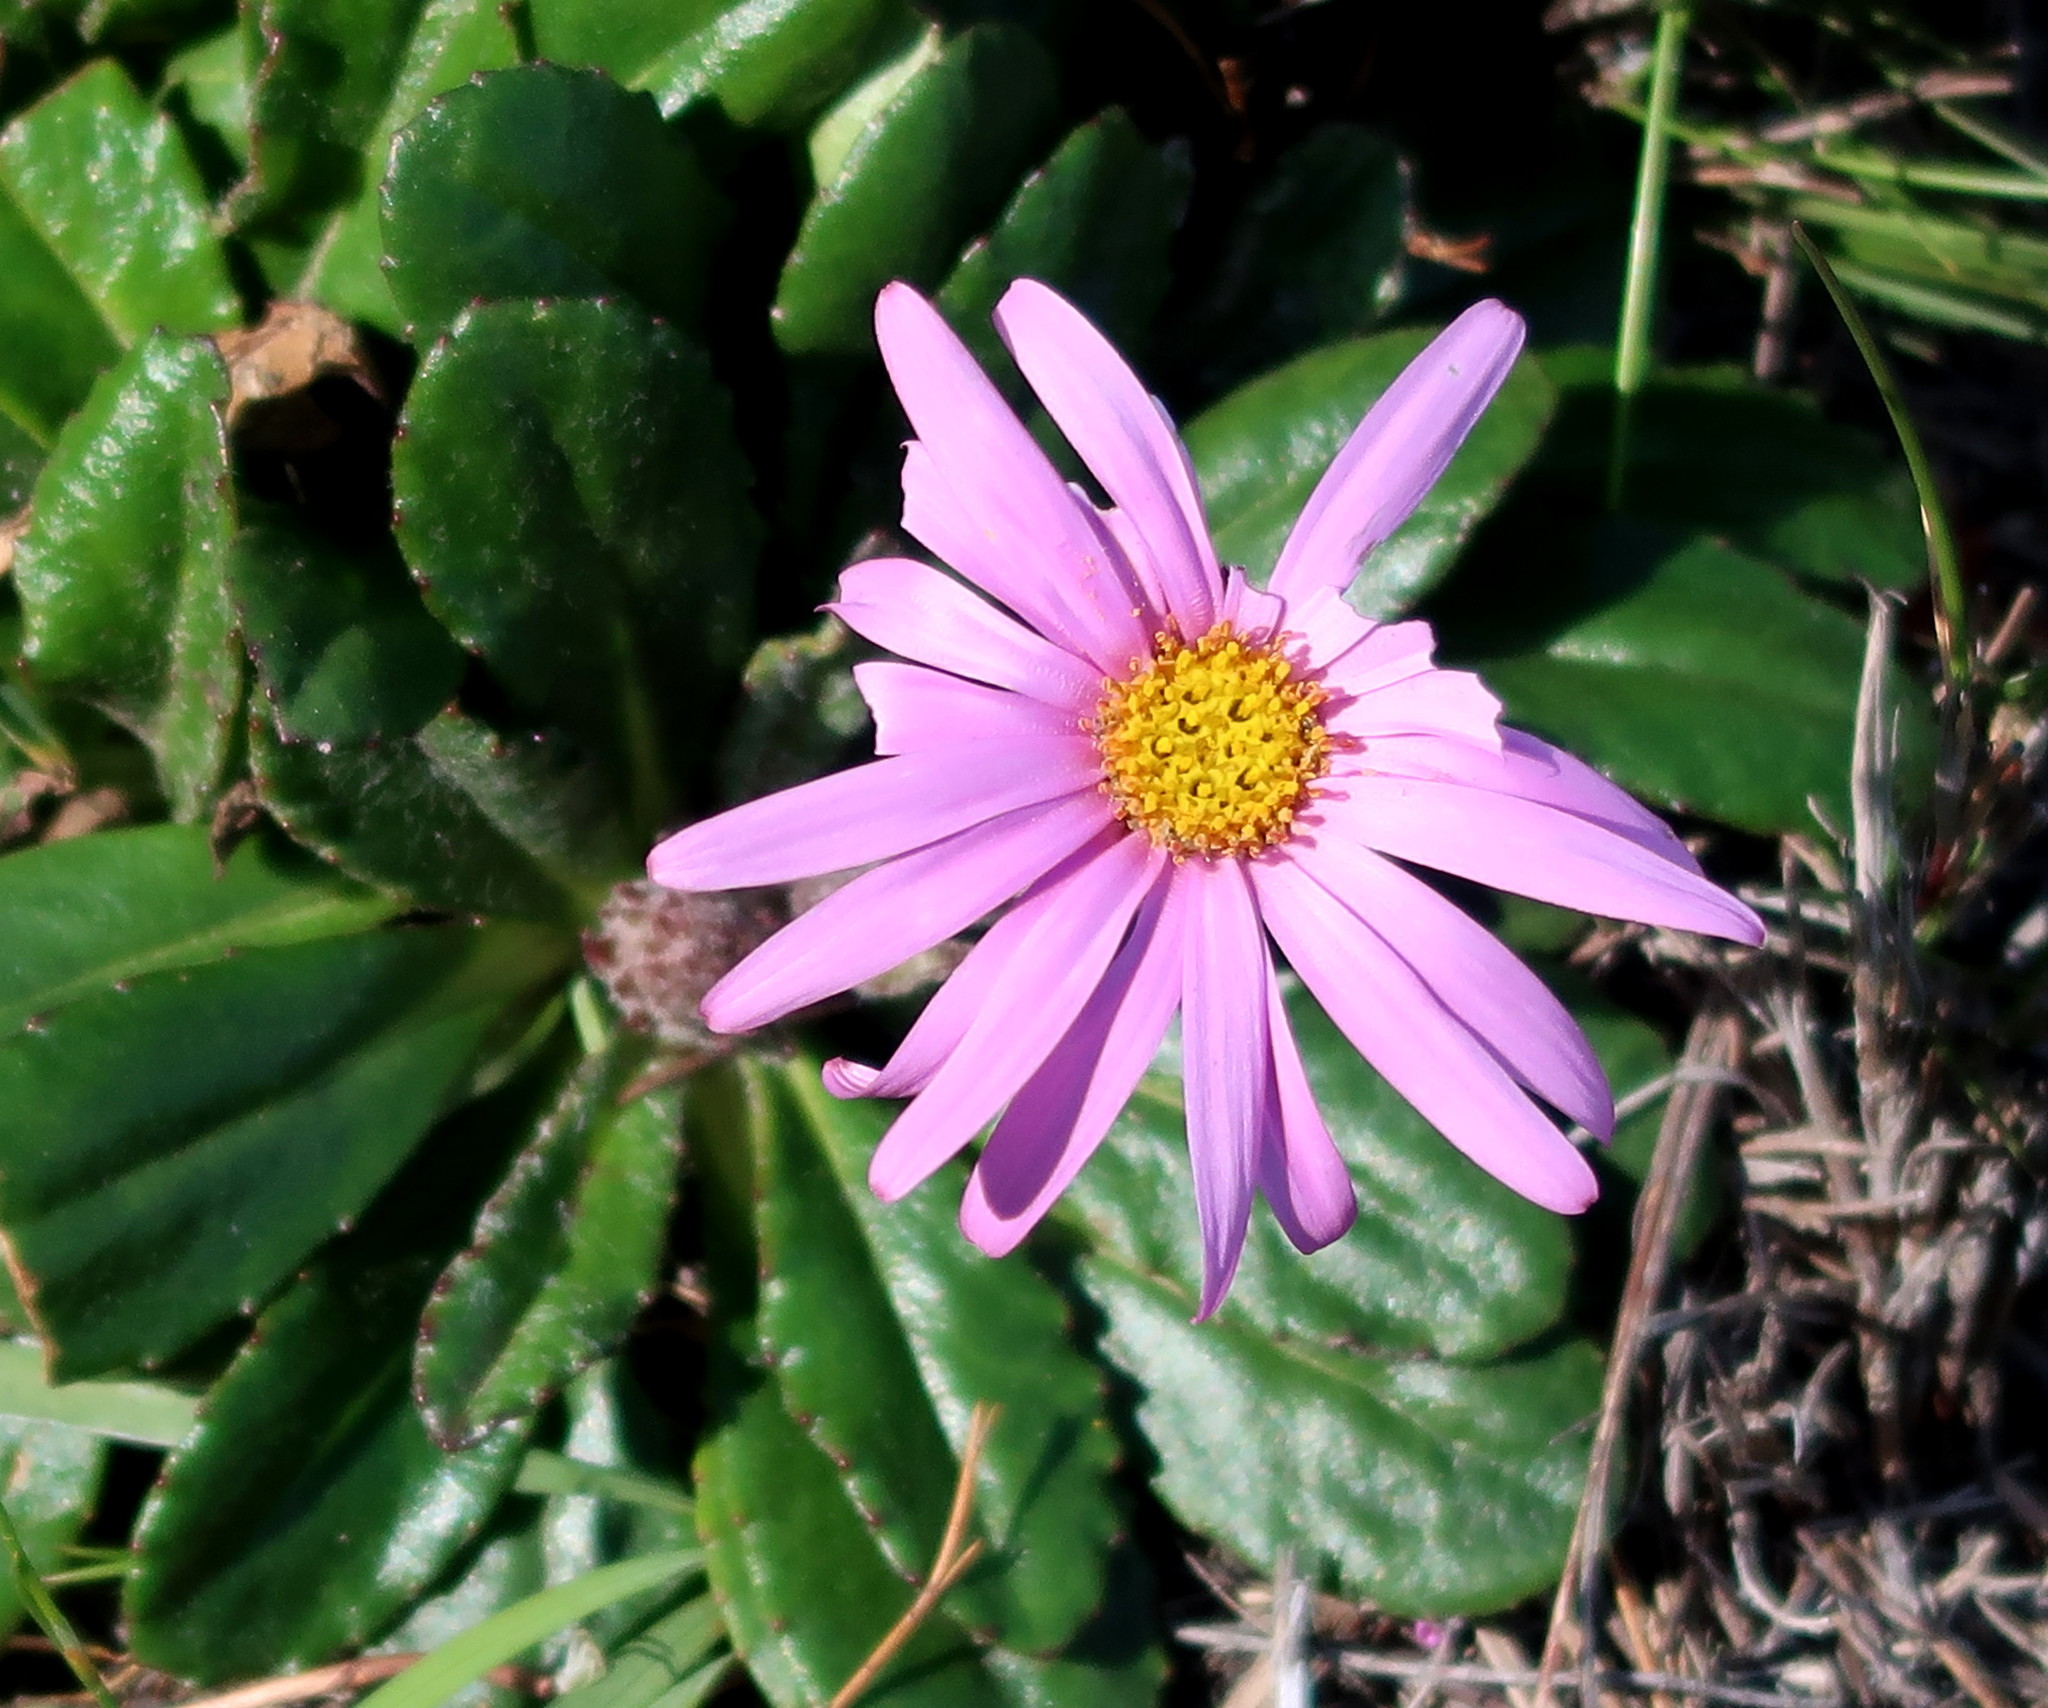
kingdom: Plantae
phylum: Tracheophyta
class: Magnoliopsida
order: Asterales
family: Asteraceae
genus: Zyrphelis
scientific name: Zyrphelis crenata
